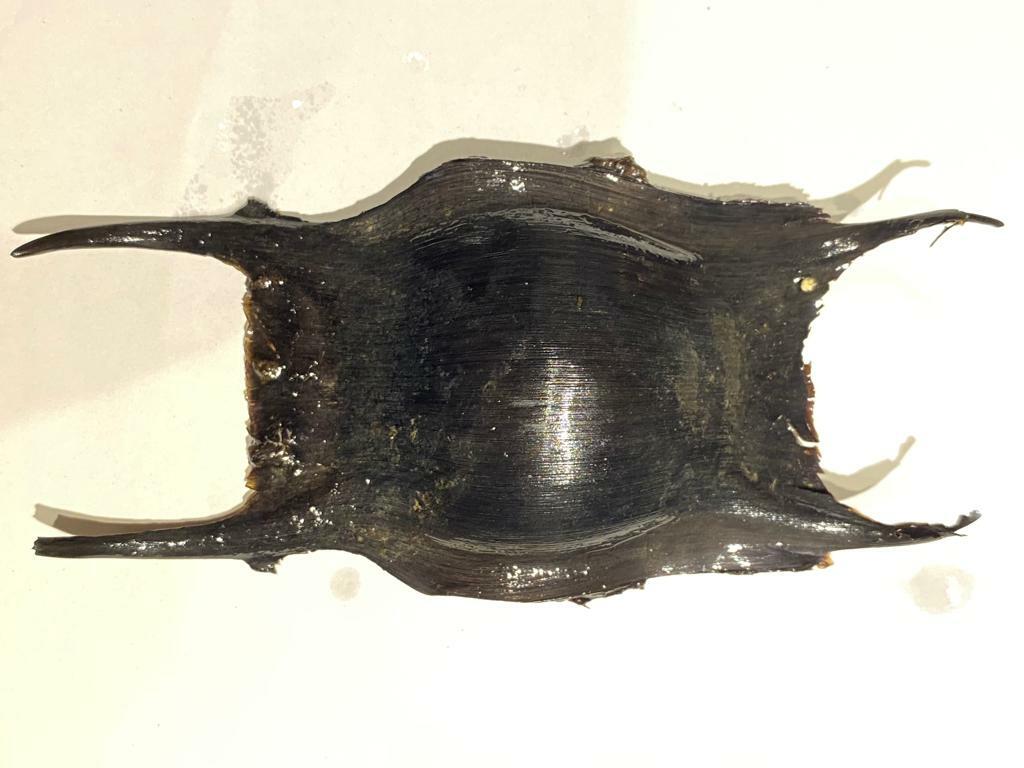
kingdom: Animalia
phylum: Chordata
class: Elasmobranchii
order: Rajiformes
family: Rajidae
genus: Raja
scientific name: Raja clavata
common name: Thornback ray
